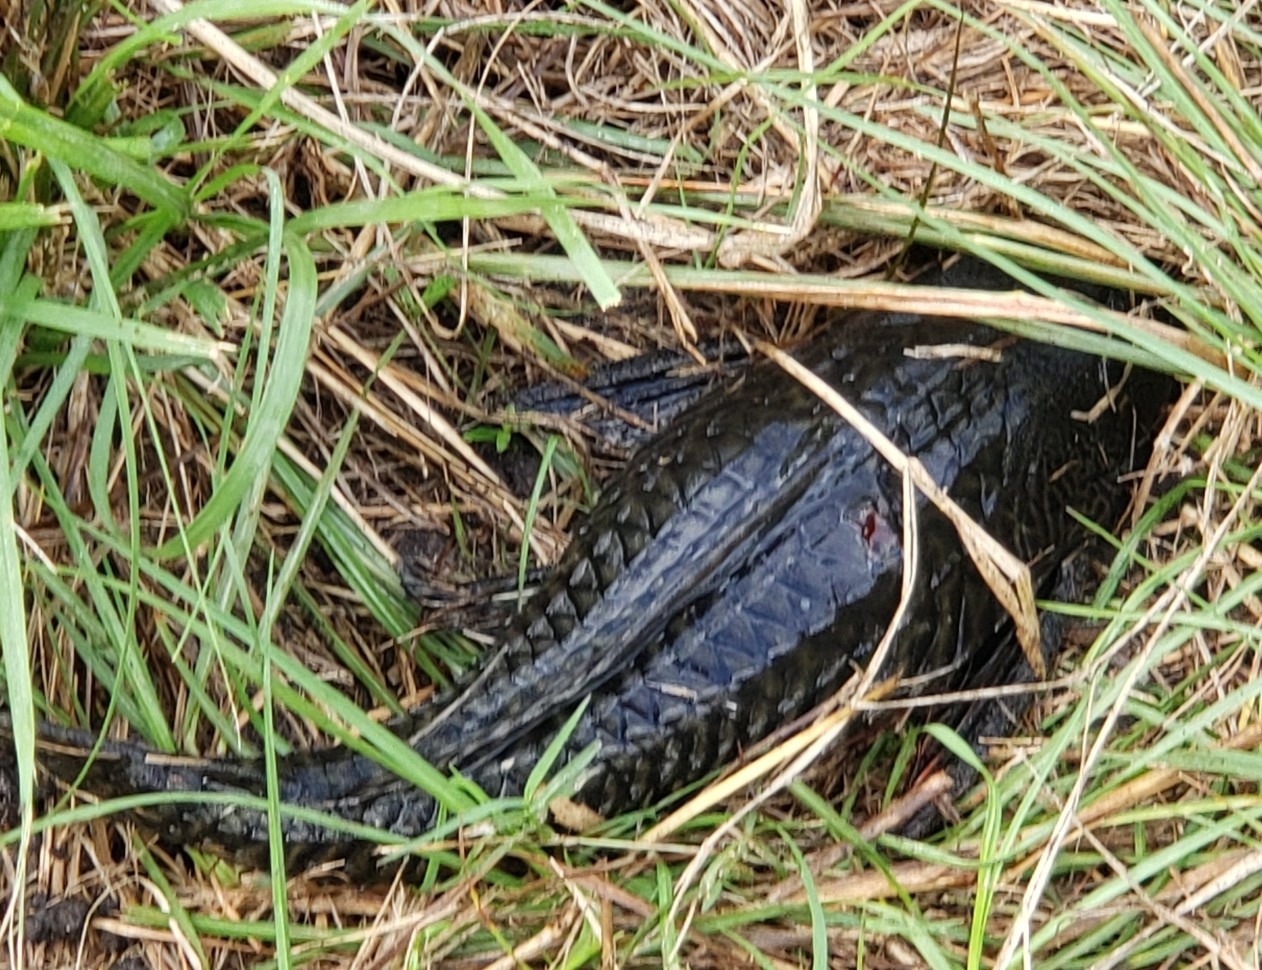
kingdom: Animalia
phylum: Chordata
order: Siluriformes
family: Loricariidae
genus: Pterygoplichthys
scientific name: Pterygoplichthys
